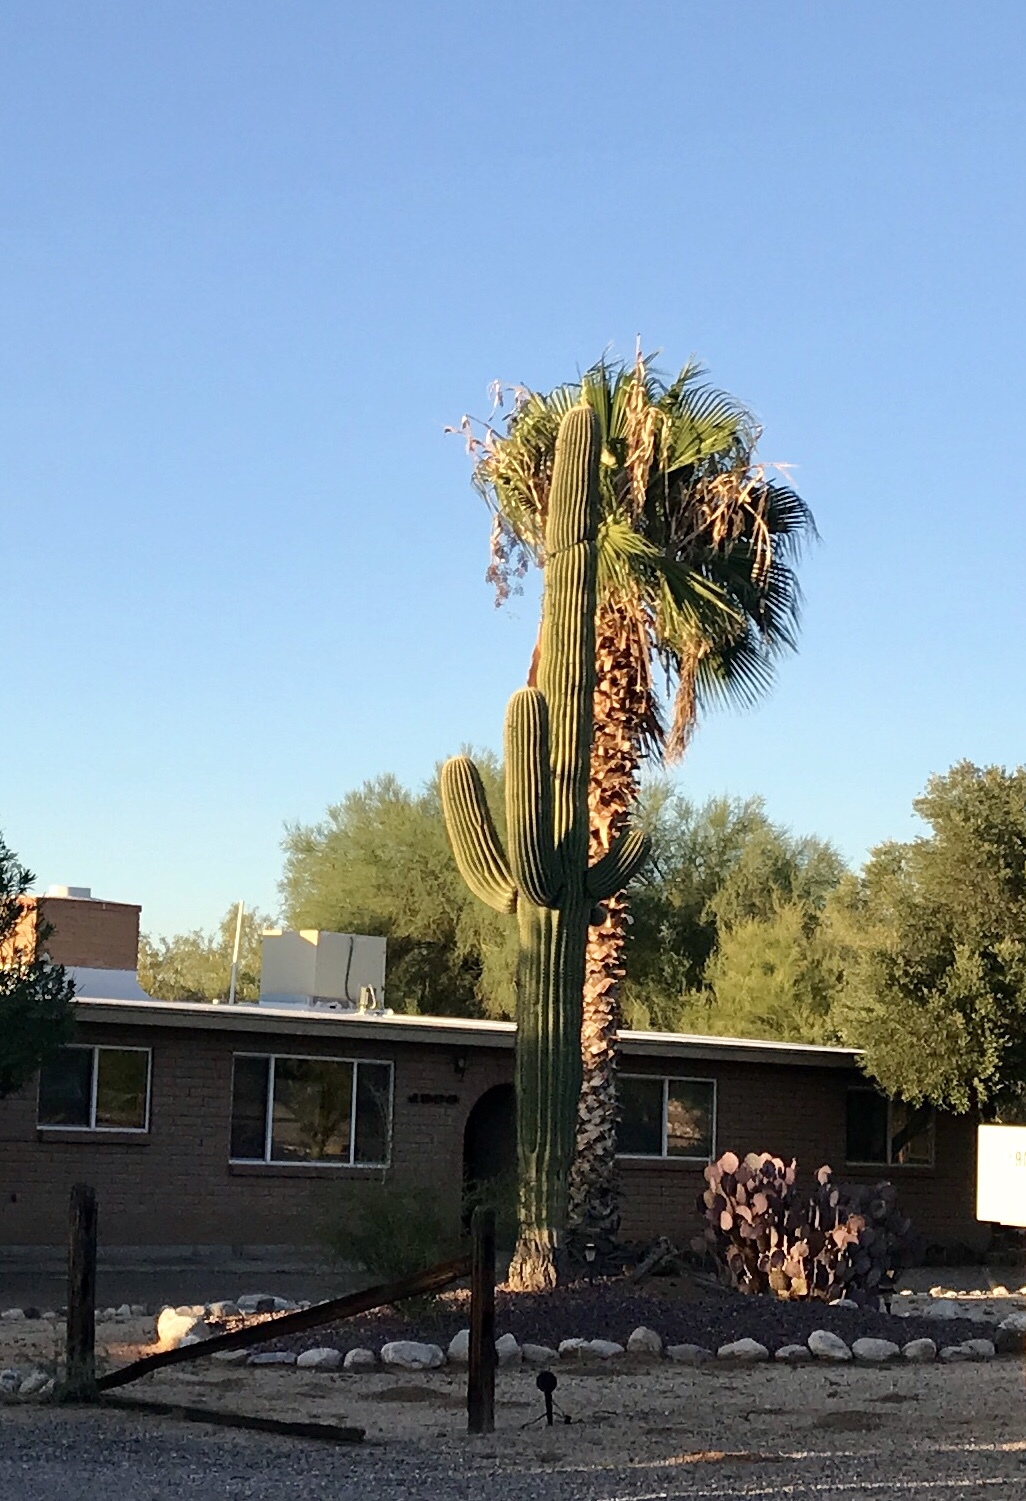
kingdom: Plantae
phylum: Tracheophyta
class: Magnoliopsida
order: Caryophyllales
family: Cactaceae
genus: Carnegiea
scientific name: Carnegiea gigantea
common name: Saguaro
